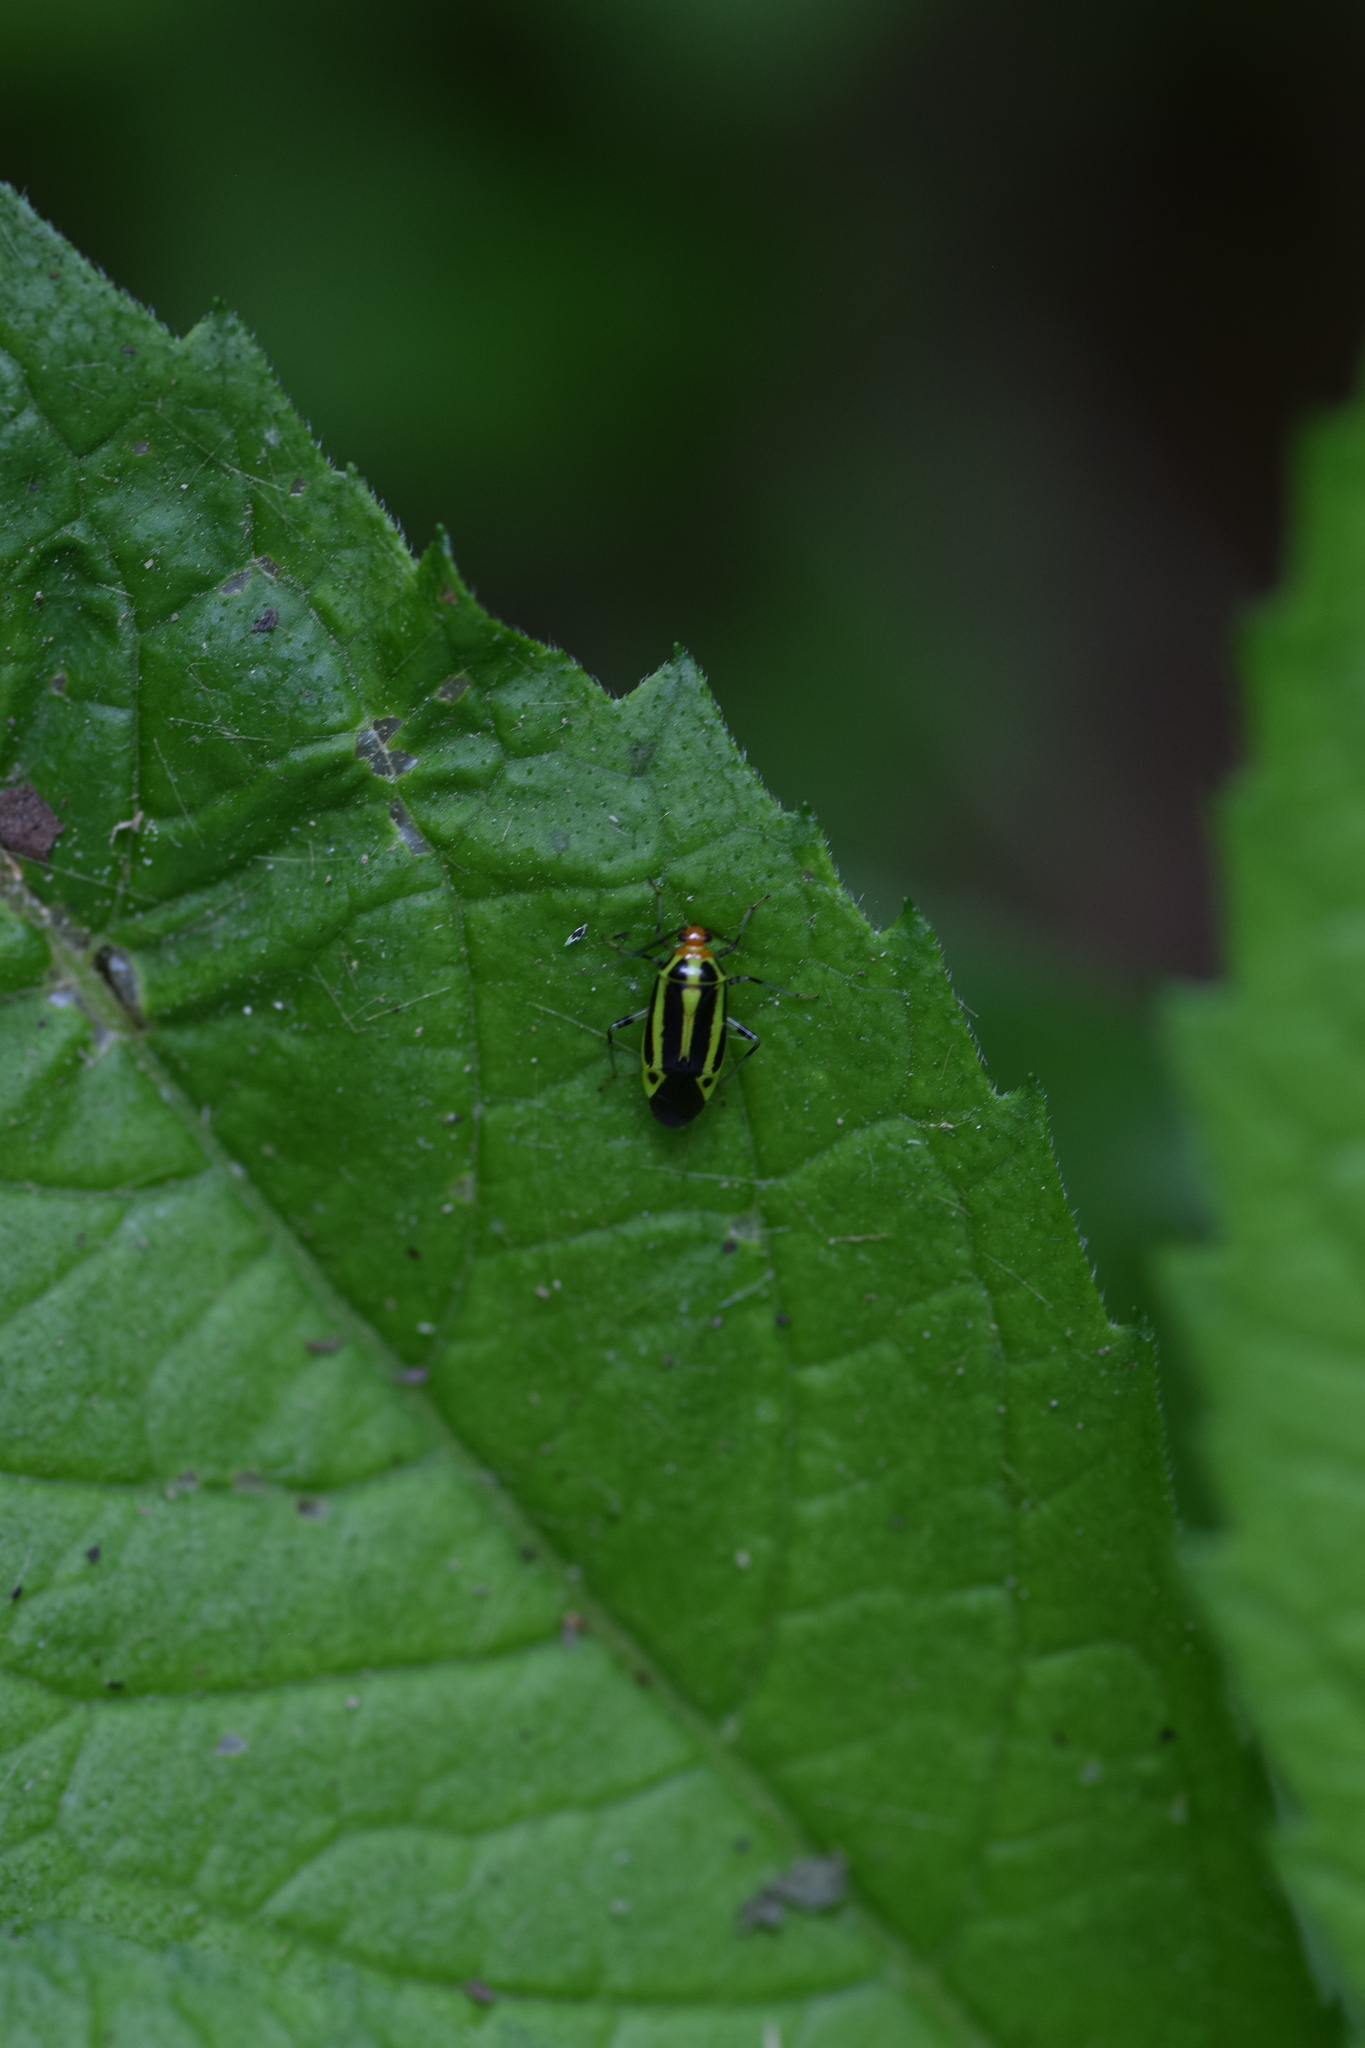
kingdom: Animalia
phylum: Arthropoda
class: Insecta
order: Hemiptera
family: Miridae
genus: Poecilocapsus
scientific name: Poecilocapsus lineatus
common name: Four-lined plant bug
